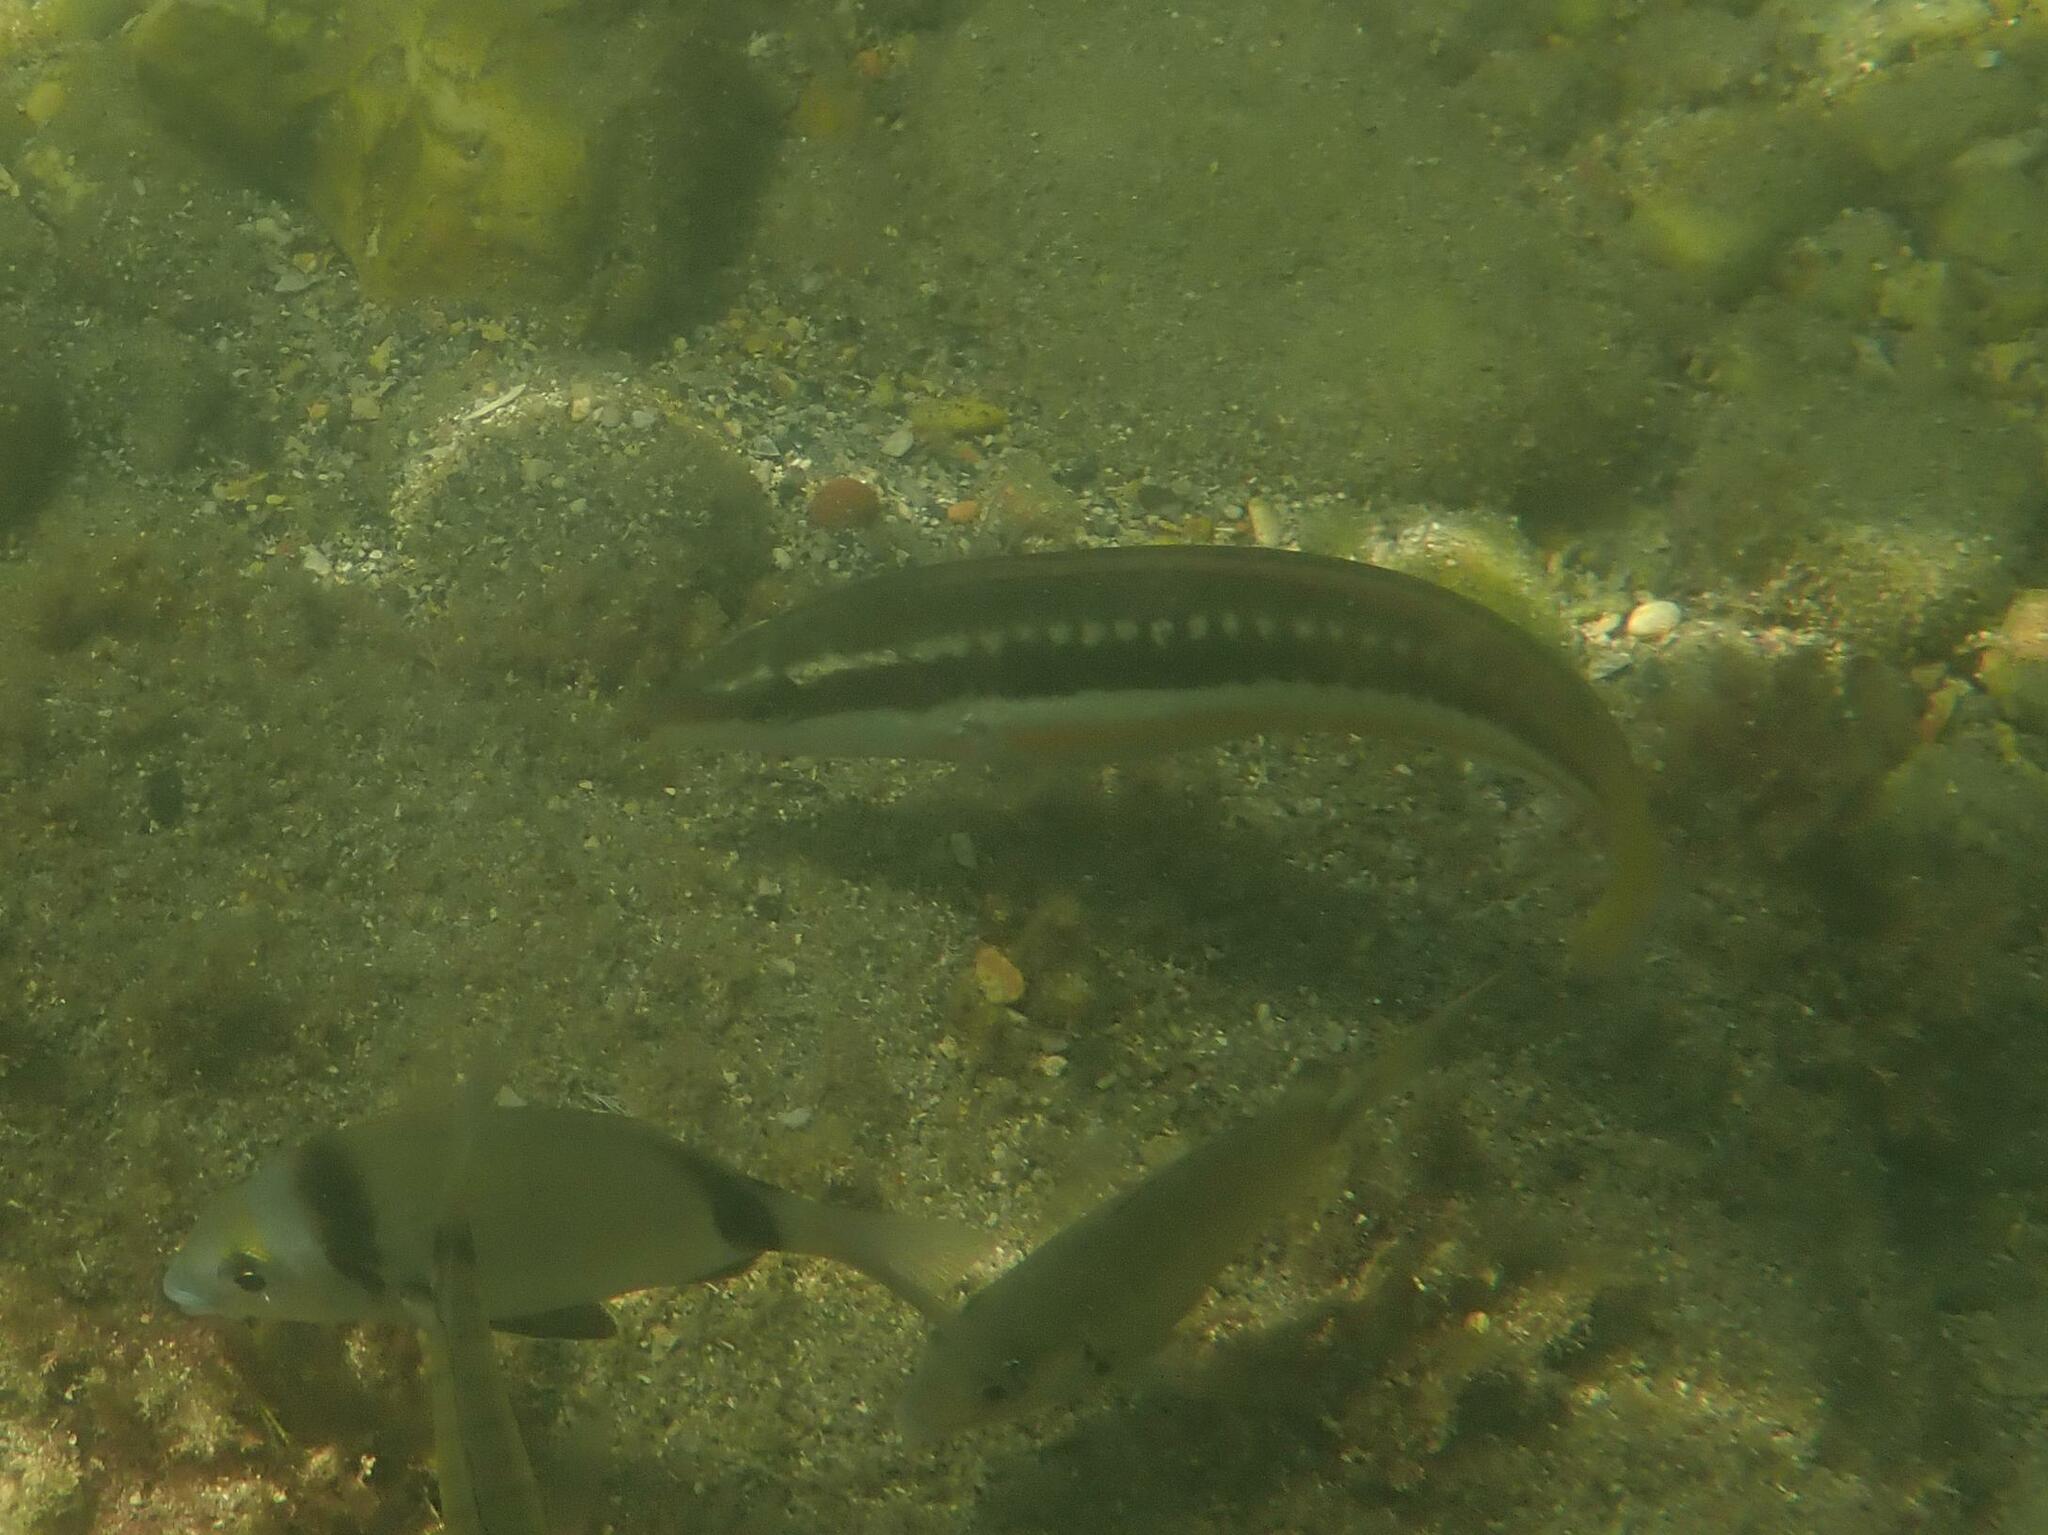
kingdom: Animalia
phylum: Chordata
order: Perciformes
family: Labridae
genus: Coris
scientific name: Coris julis
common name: Rainbow wrasse
